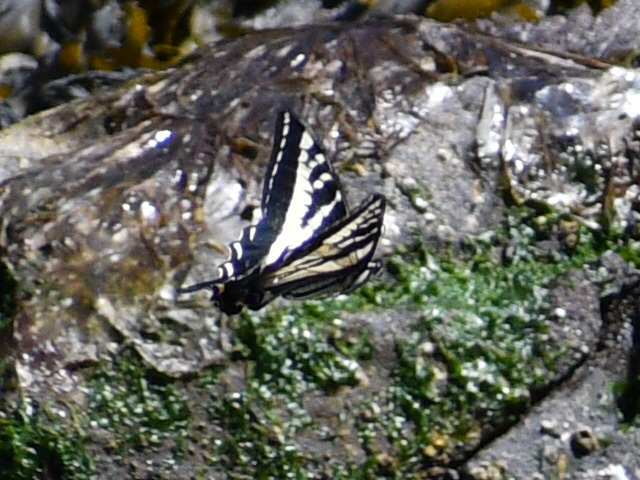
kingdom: Animalia
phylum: Arthropoda
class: Insecta
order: Lepidoptera
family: Papilionidae
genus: Papilio
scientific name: Papilio eurymedon
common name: Pale tiger swallowtail
